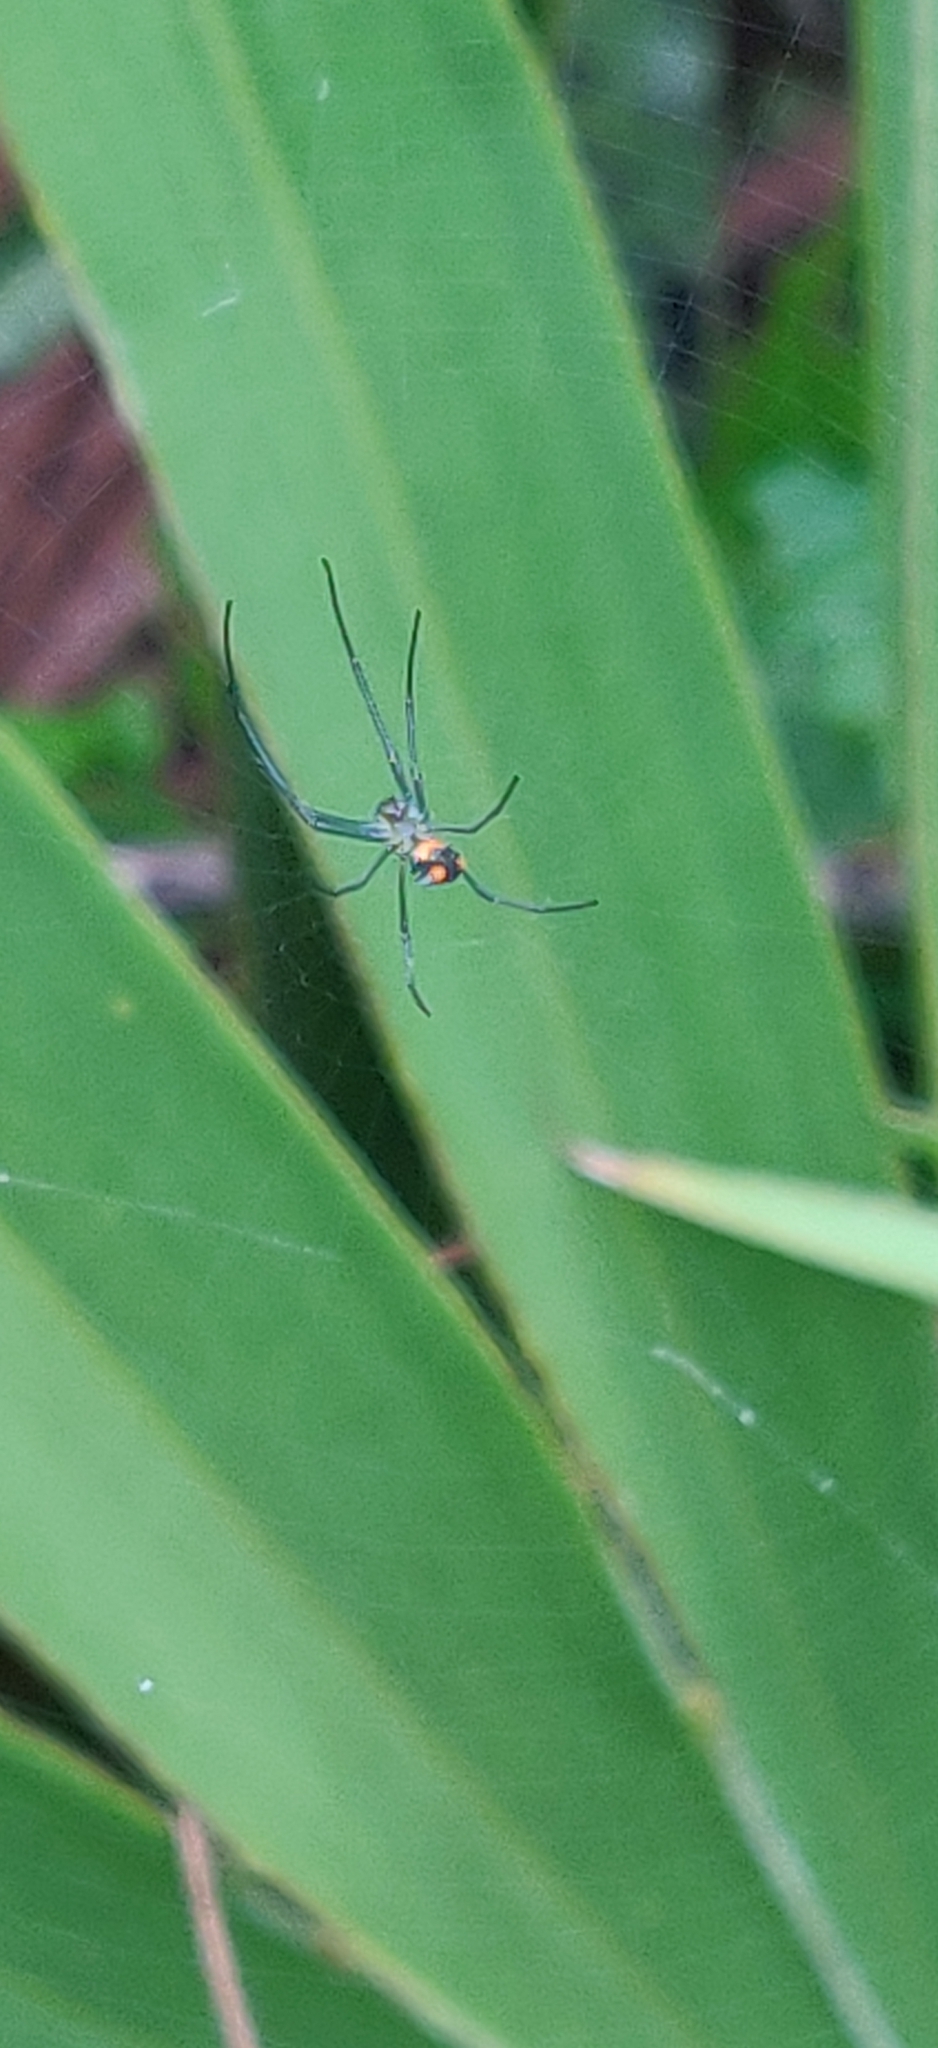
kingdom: Animalia
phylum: Arthropoda
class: Arachnida
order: Araneae
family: Tetragnathidae
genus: Leucauge
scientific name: Leucauge argyrobapta
